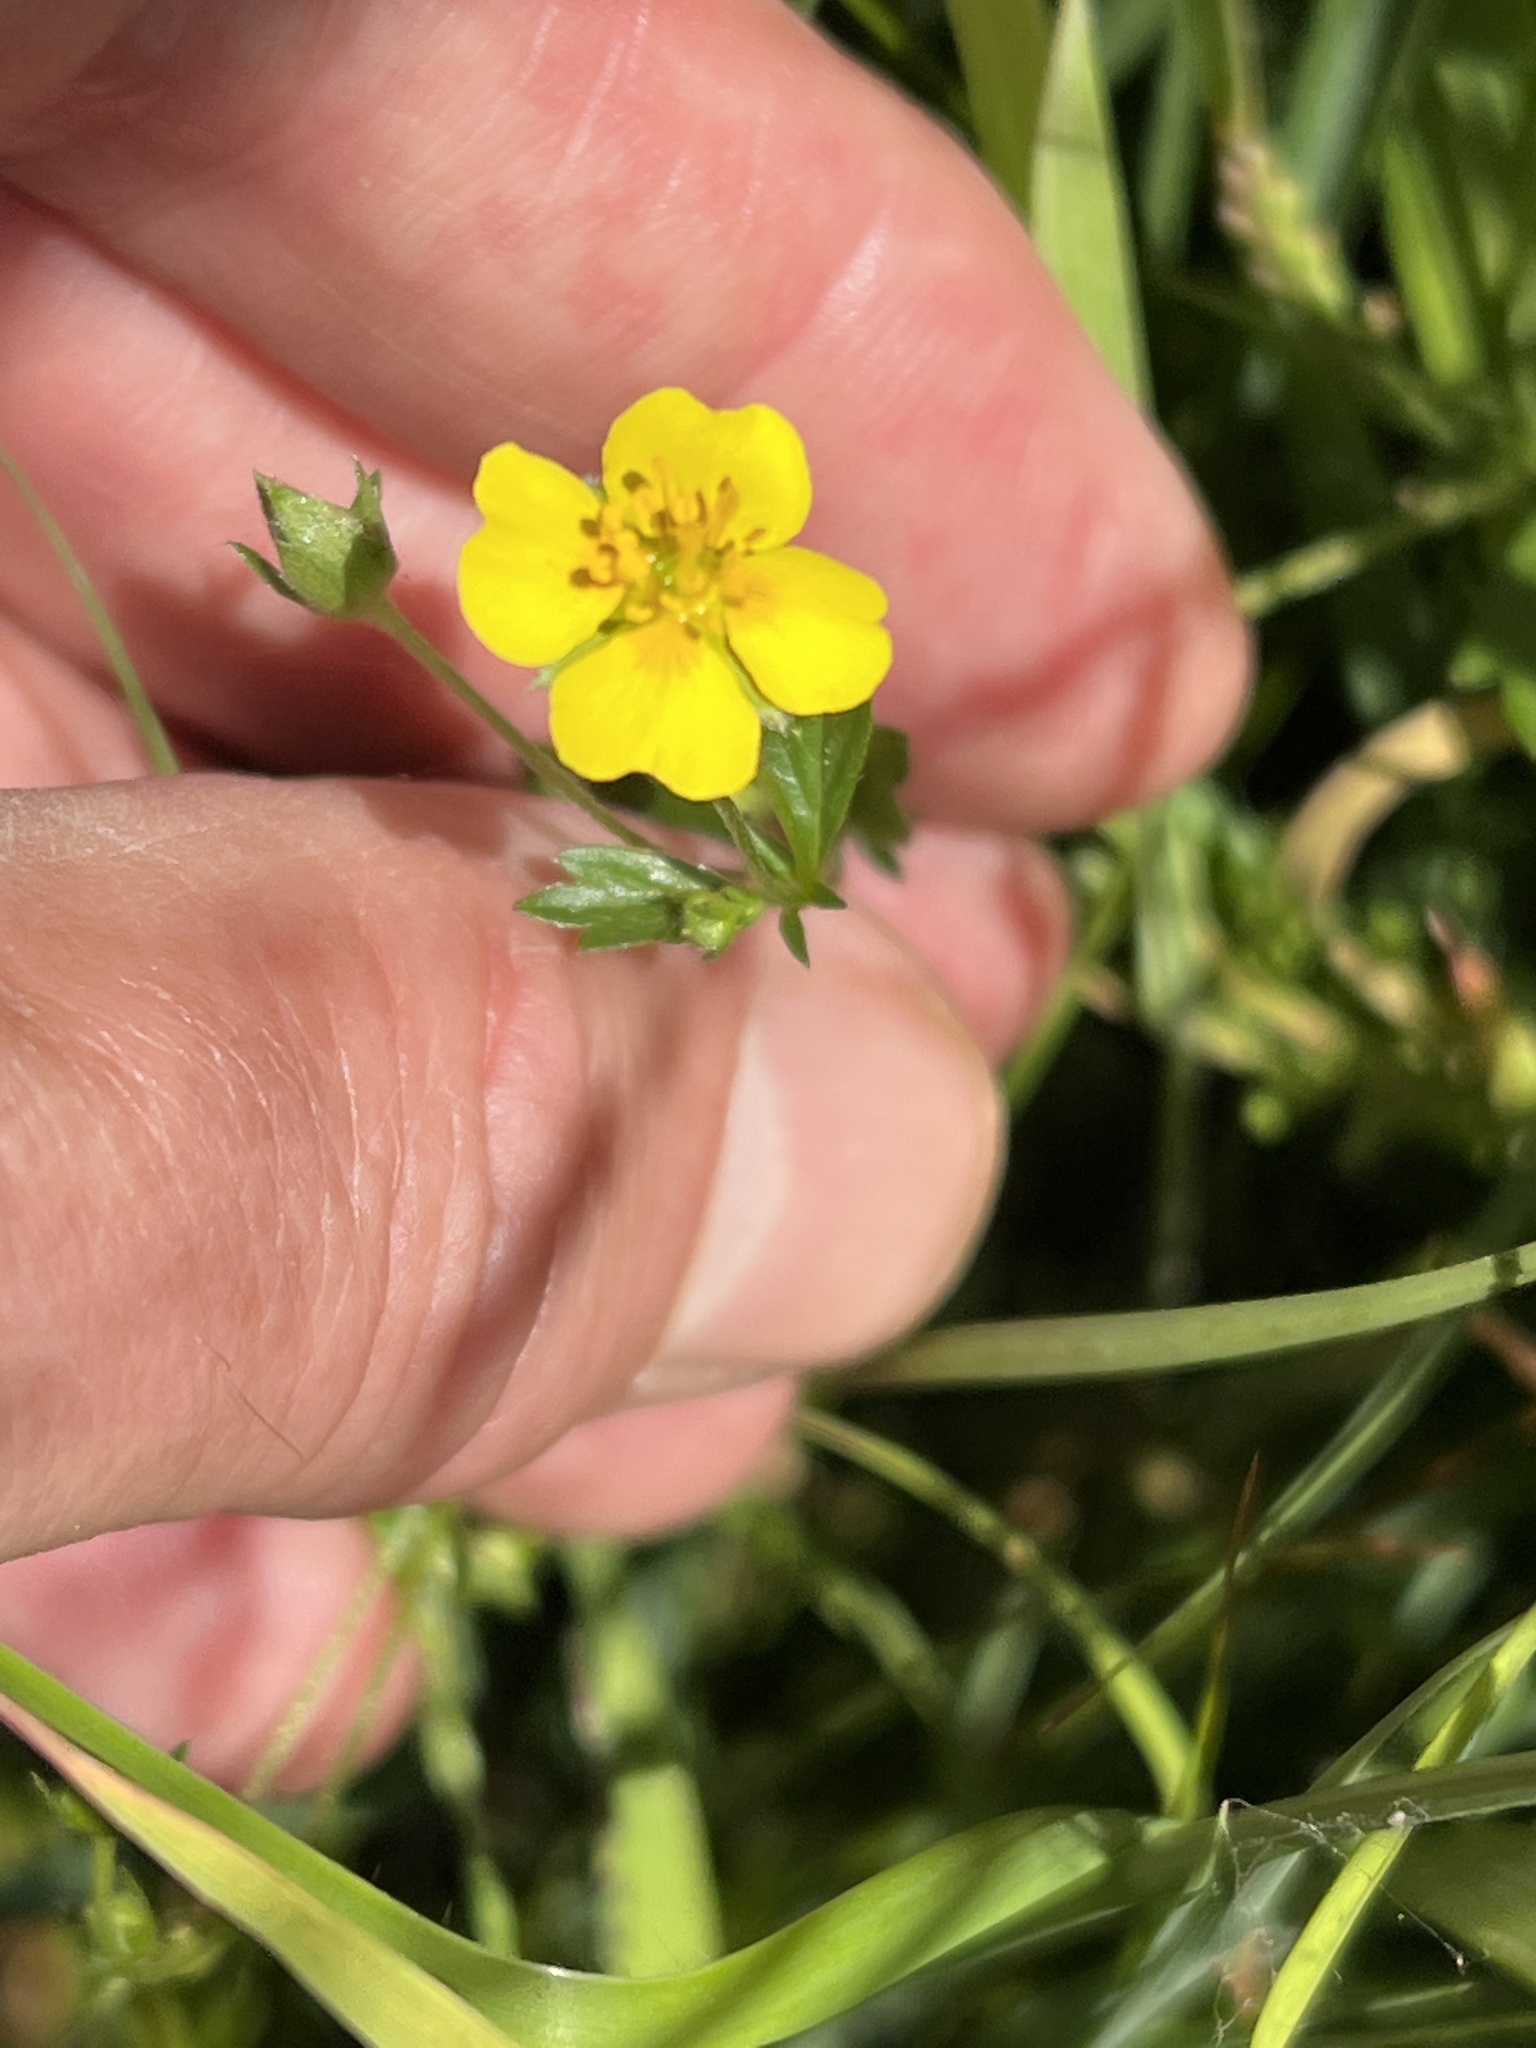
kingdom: Plantae
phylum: Tracheophyta
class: Magnoliopsida
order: Rosales
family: Rosaceae
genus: Potentilla
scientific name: Potentilla erecta
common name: Tormentil
